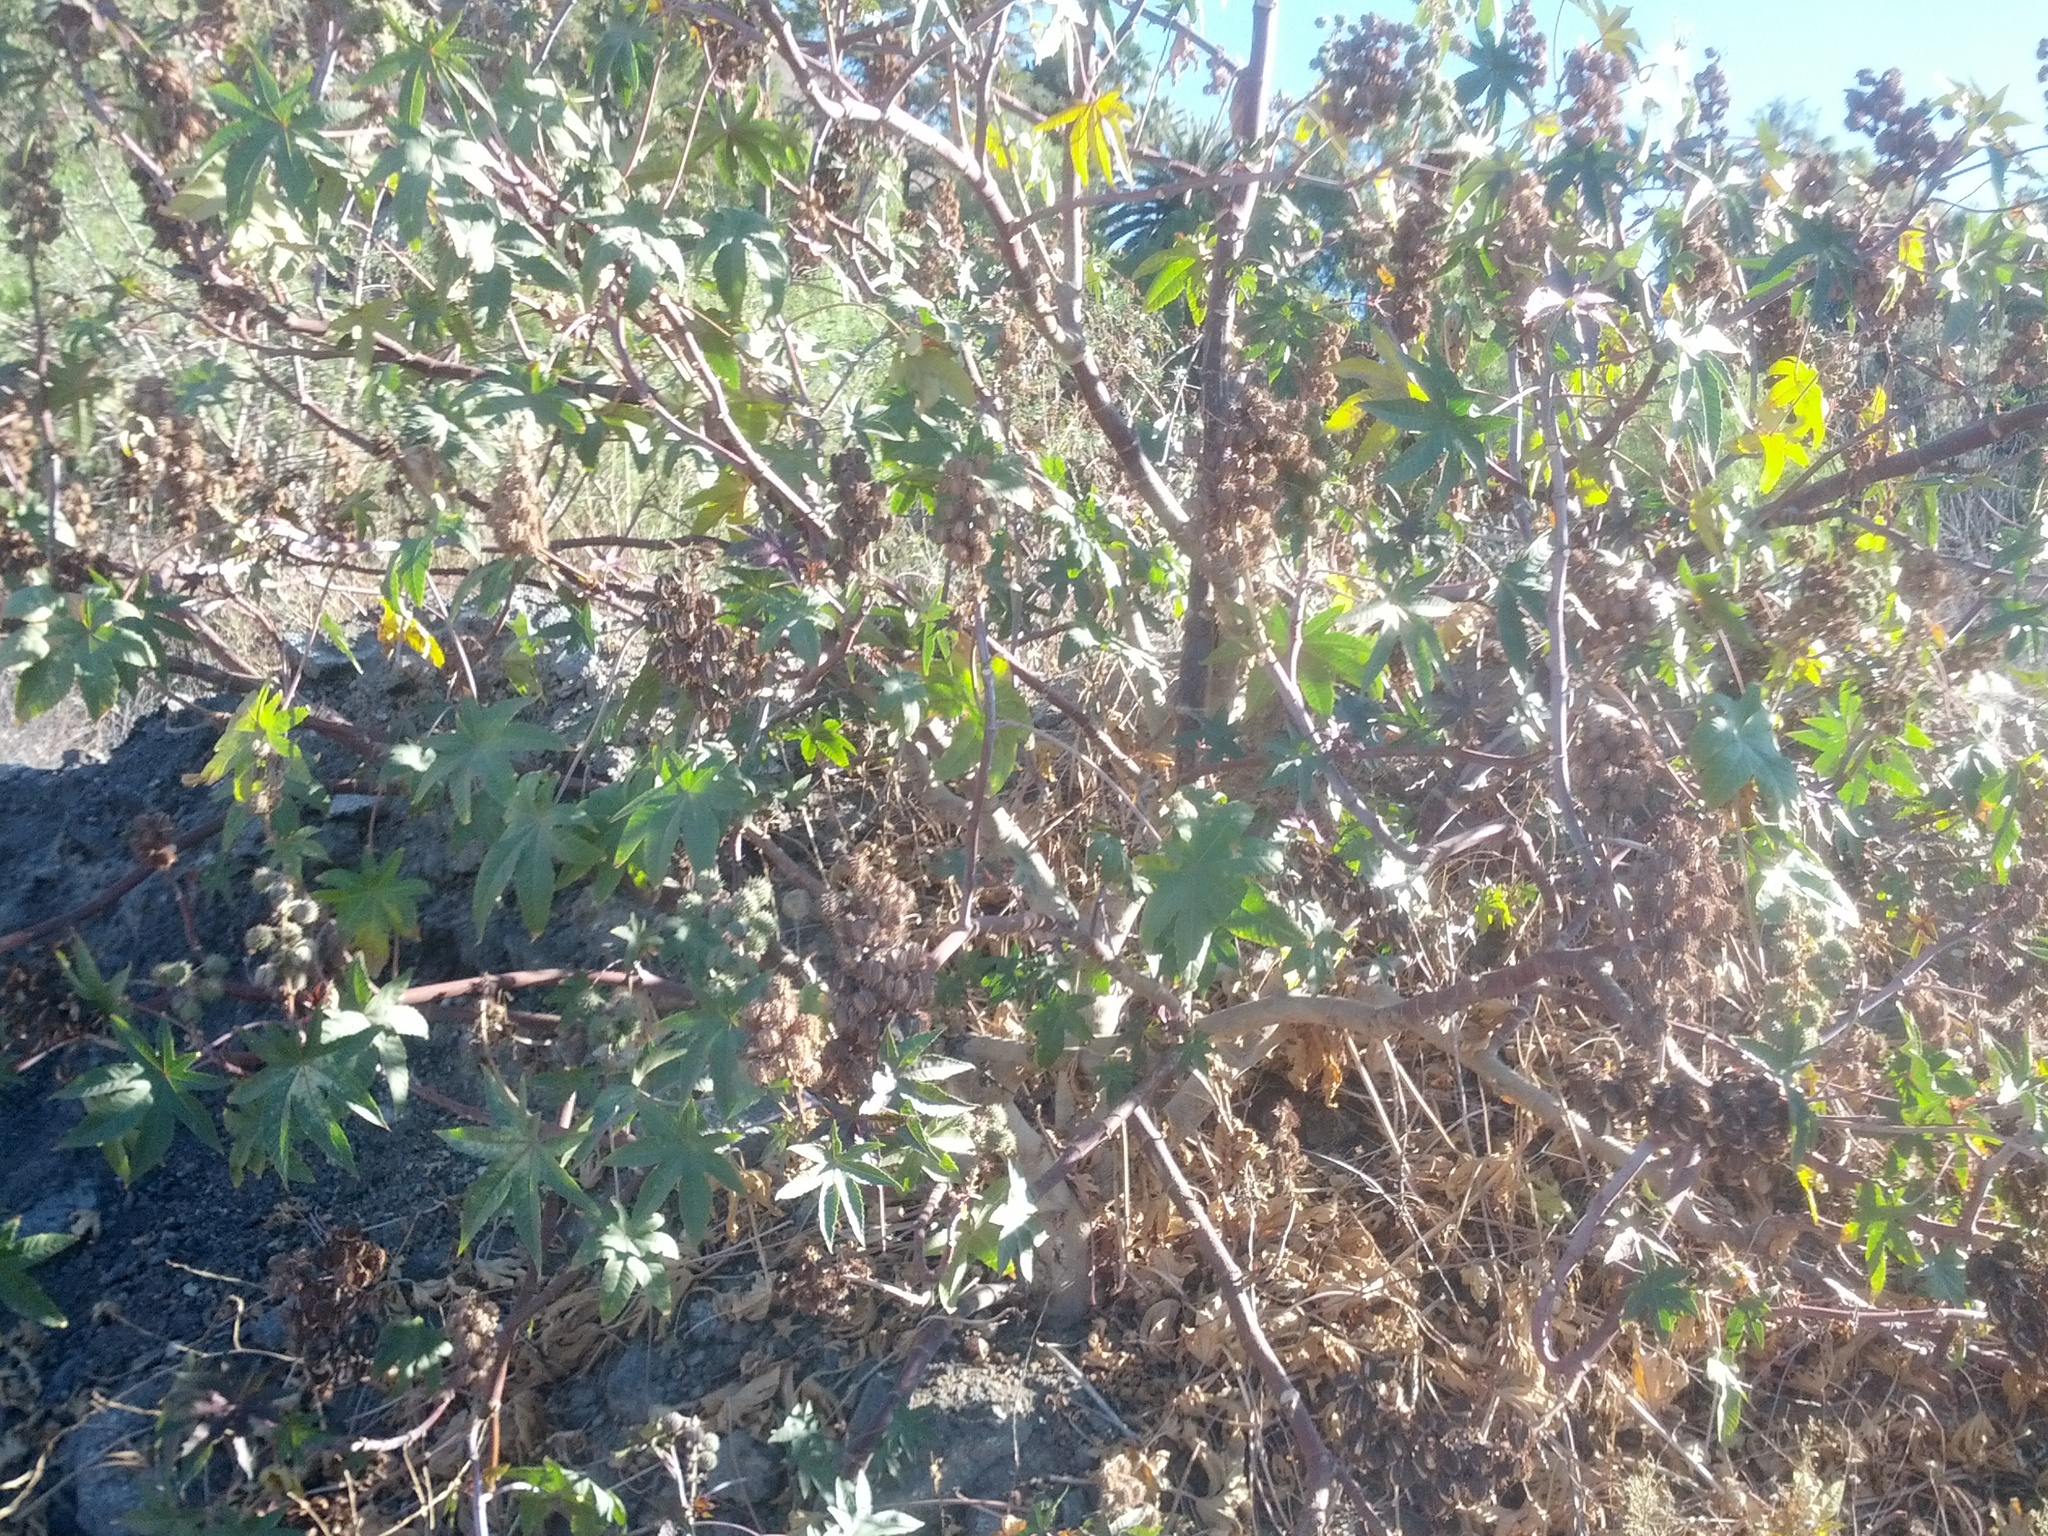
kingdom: Plantae
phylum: Tracheophyta
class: Magnoliopsida
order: Malpighiales
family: Euphorbiaceae
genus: Ricinus
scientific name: Ricinus communis
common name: Castor-oil-plant
